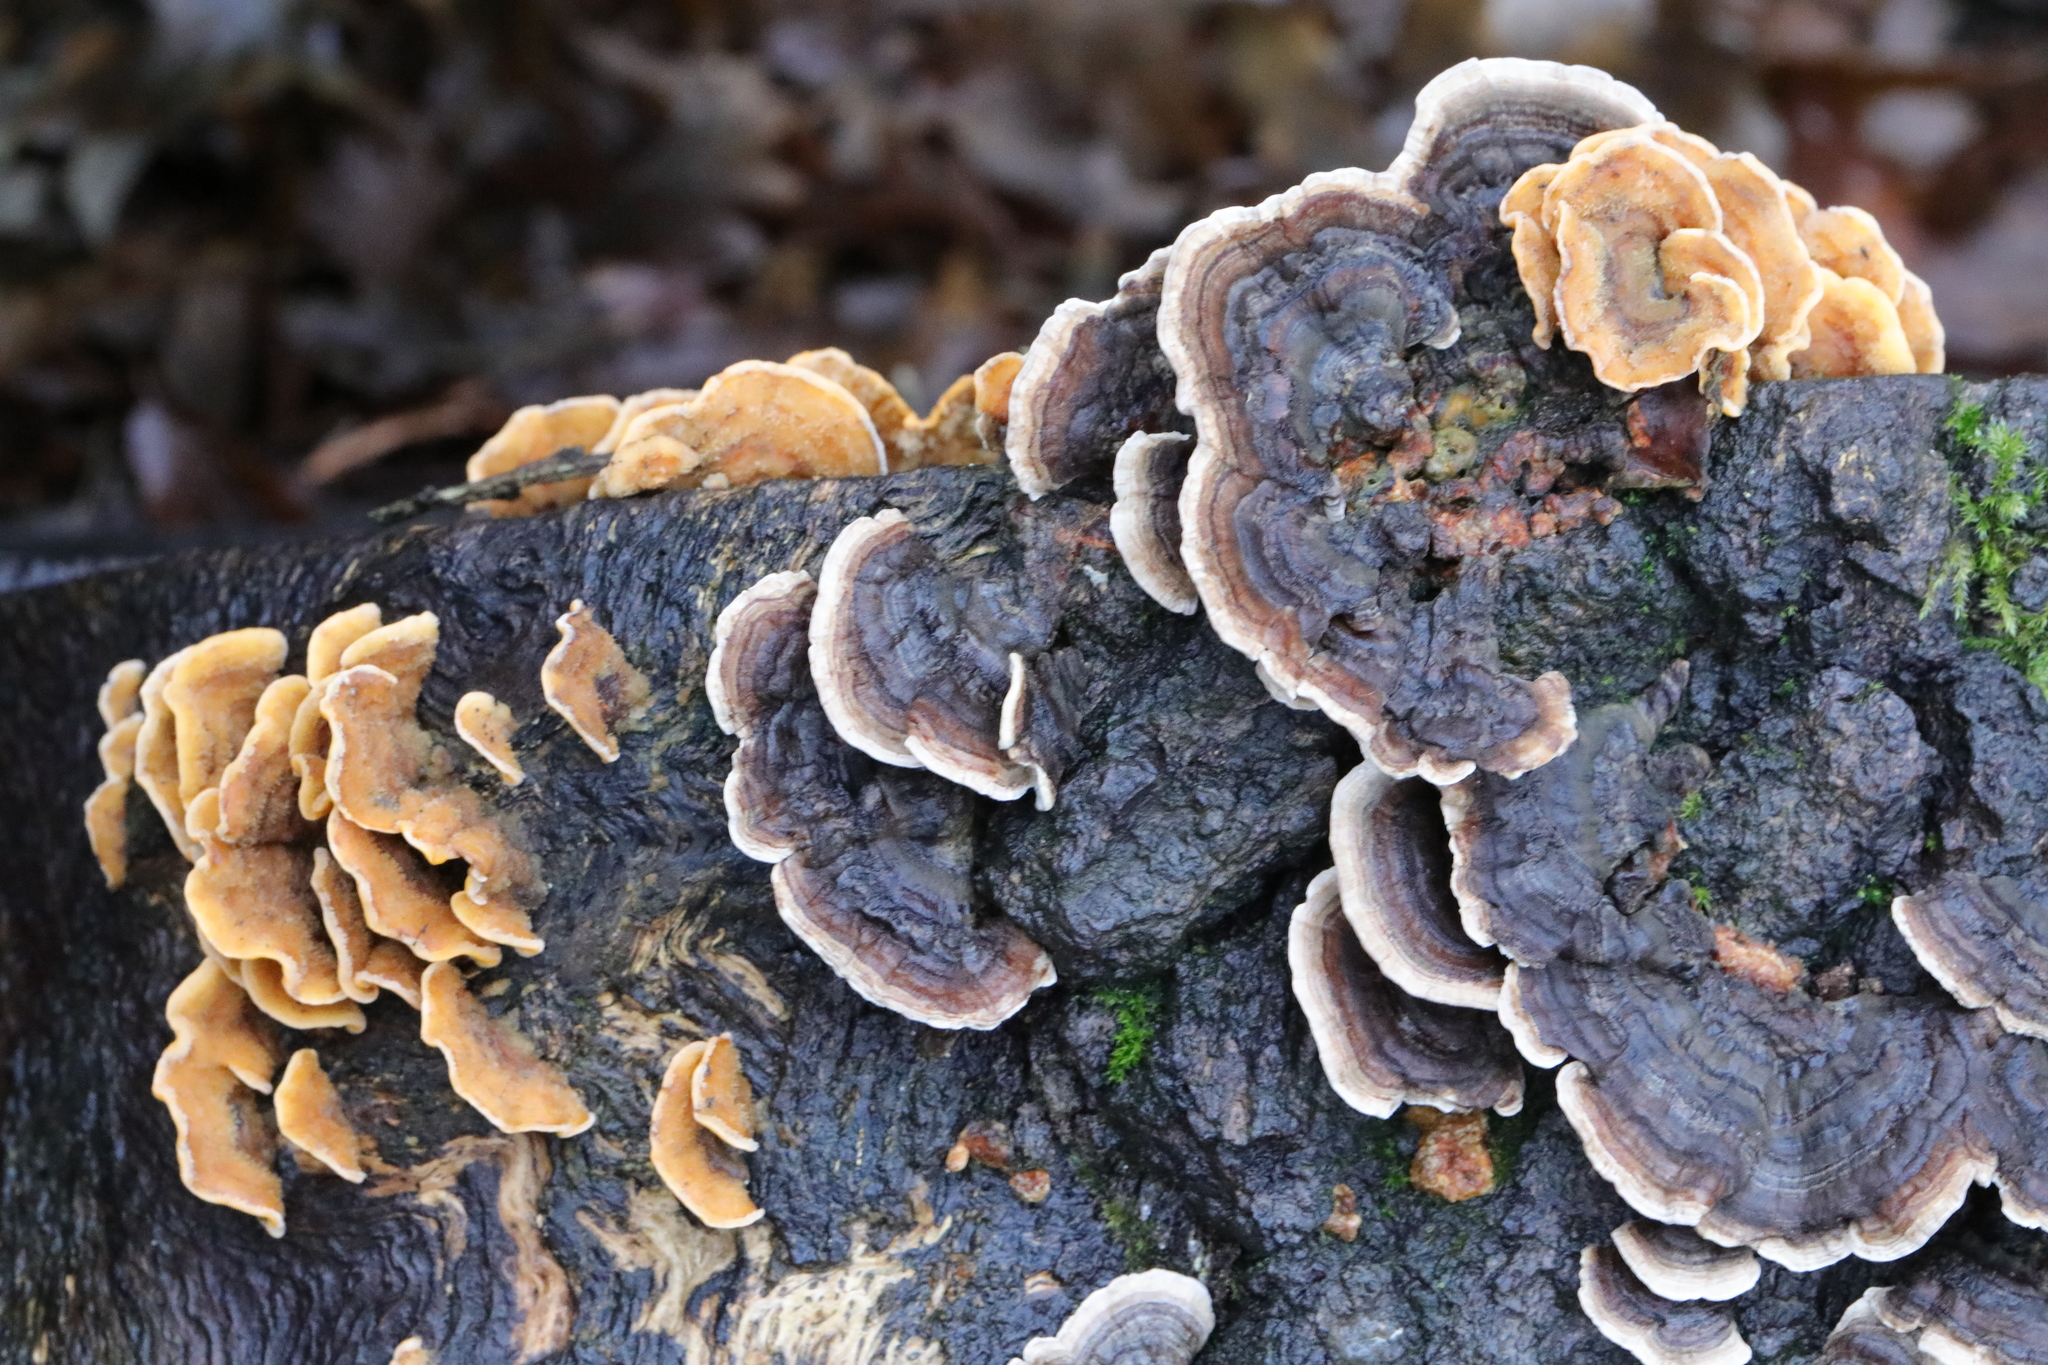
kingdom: Fungi
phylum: Basidiomycota
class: Agaricomycetes
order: Russulales
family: Stereaceae
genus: Stereum
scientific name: Stereum hirsutum
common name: Hairy curtain crust
